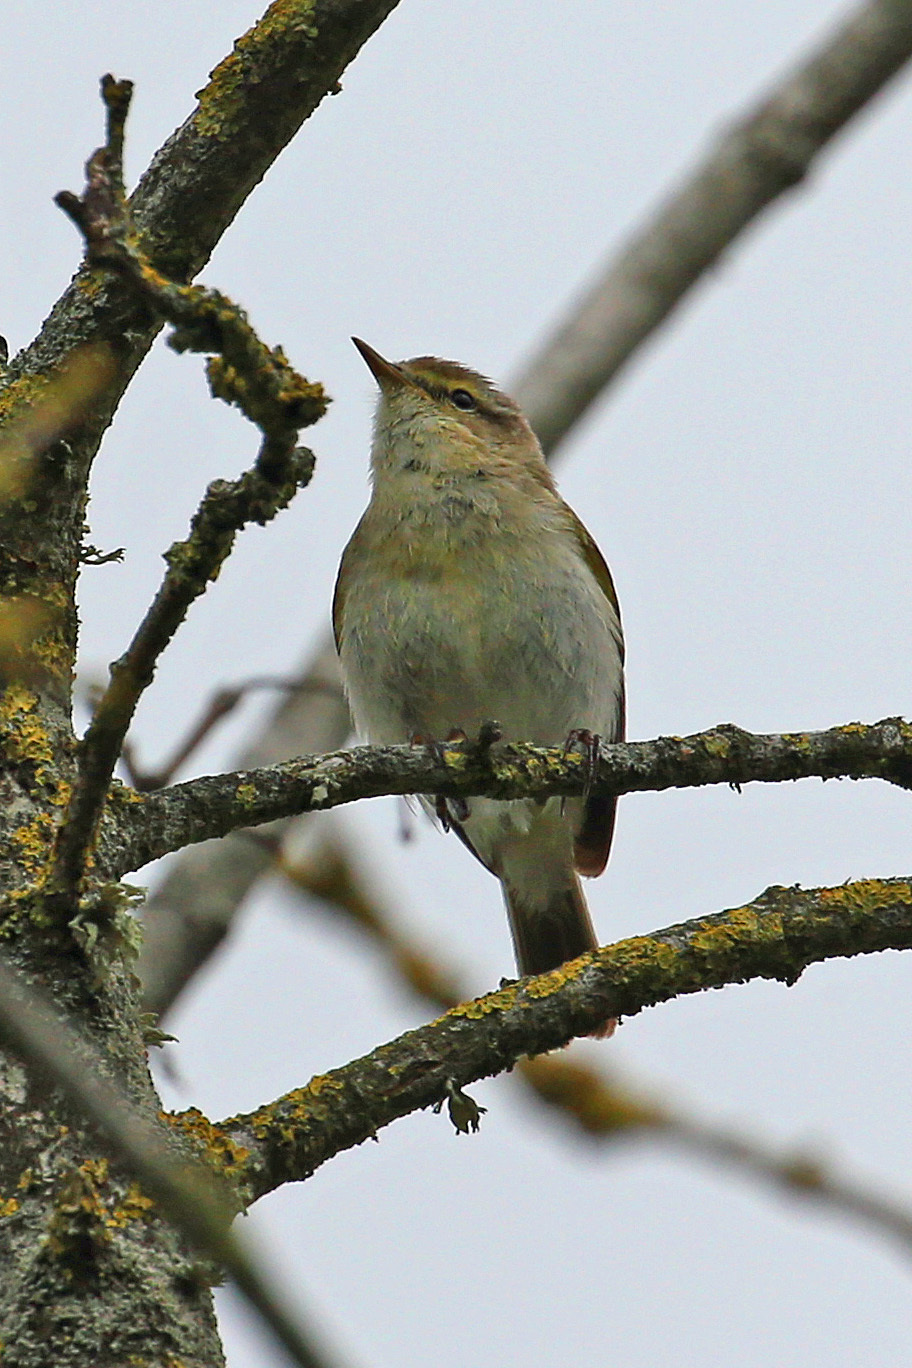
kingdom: Animalia
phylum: Chordata
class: Aves
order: Passeriformes
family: Phylloscopidae
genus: Phylloscopus
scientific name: Phylloscopus collybita
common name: Common chiffchaff
